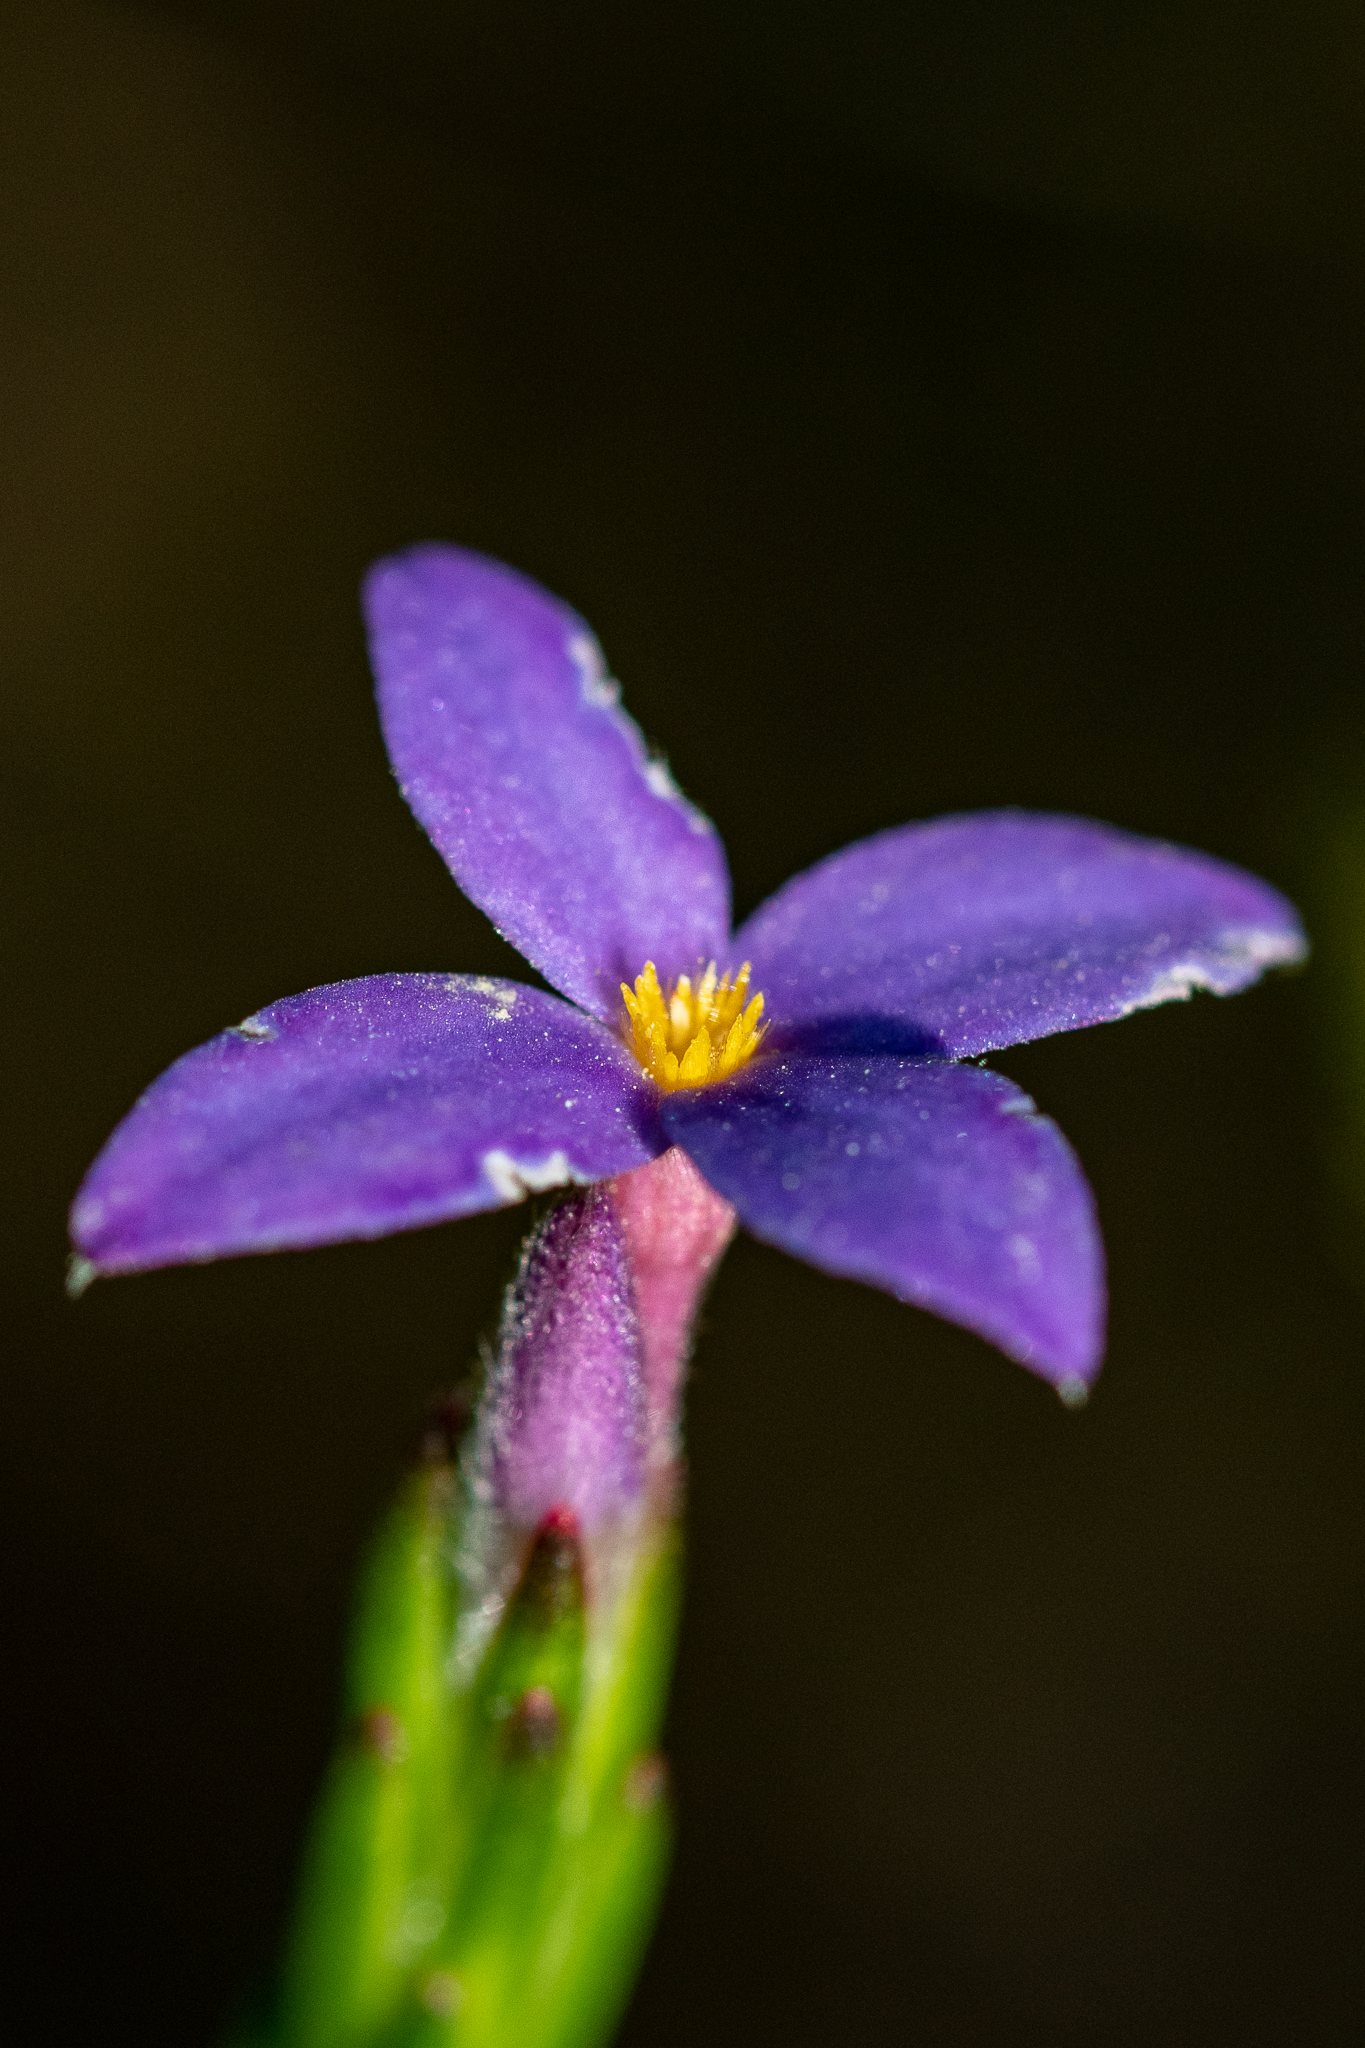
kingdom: Plantae
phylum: Tracheophyta
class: Magnoliopsida
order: Malvales
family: Thymelaeaceae
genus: Gnidia
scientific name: Gnidia penicillata
